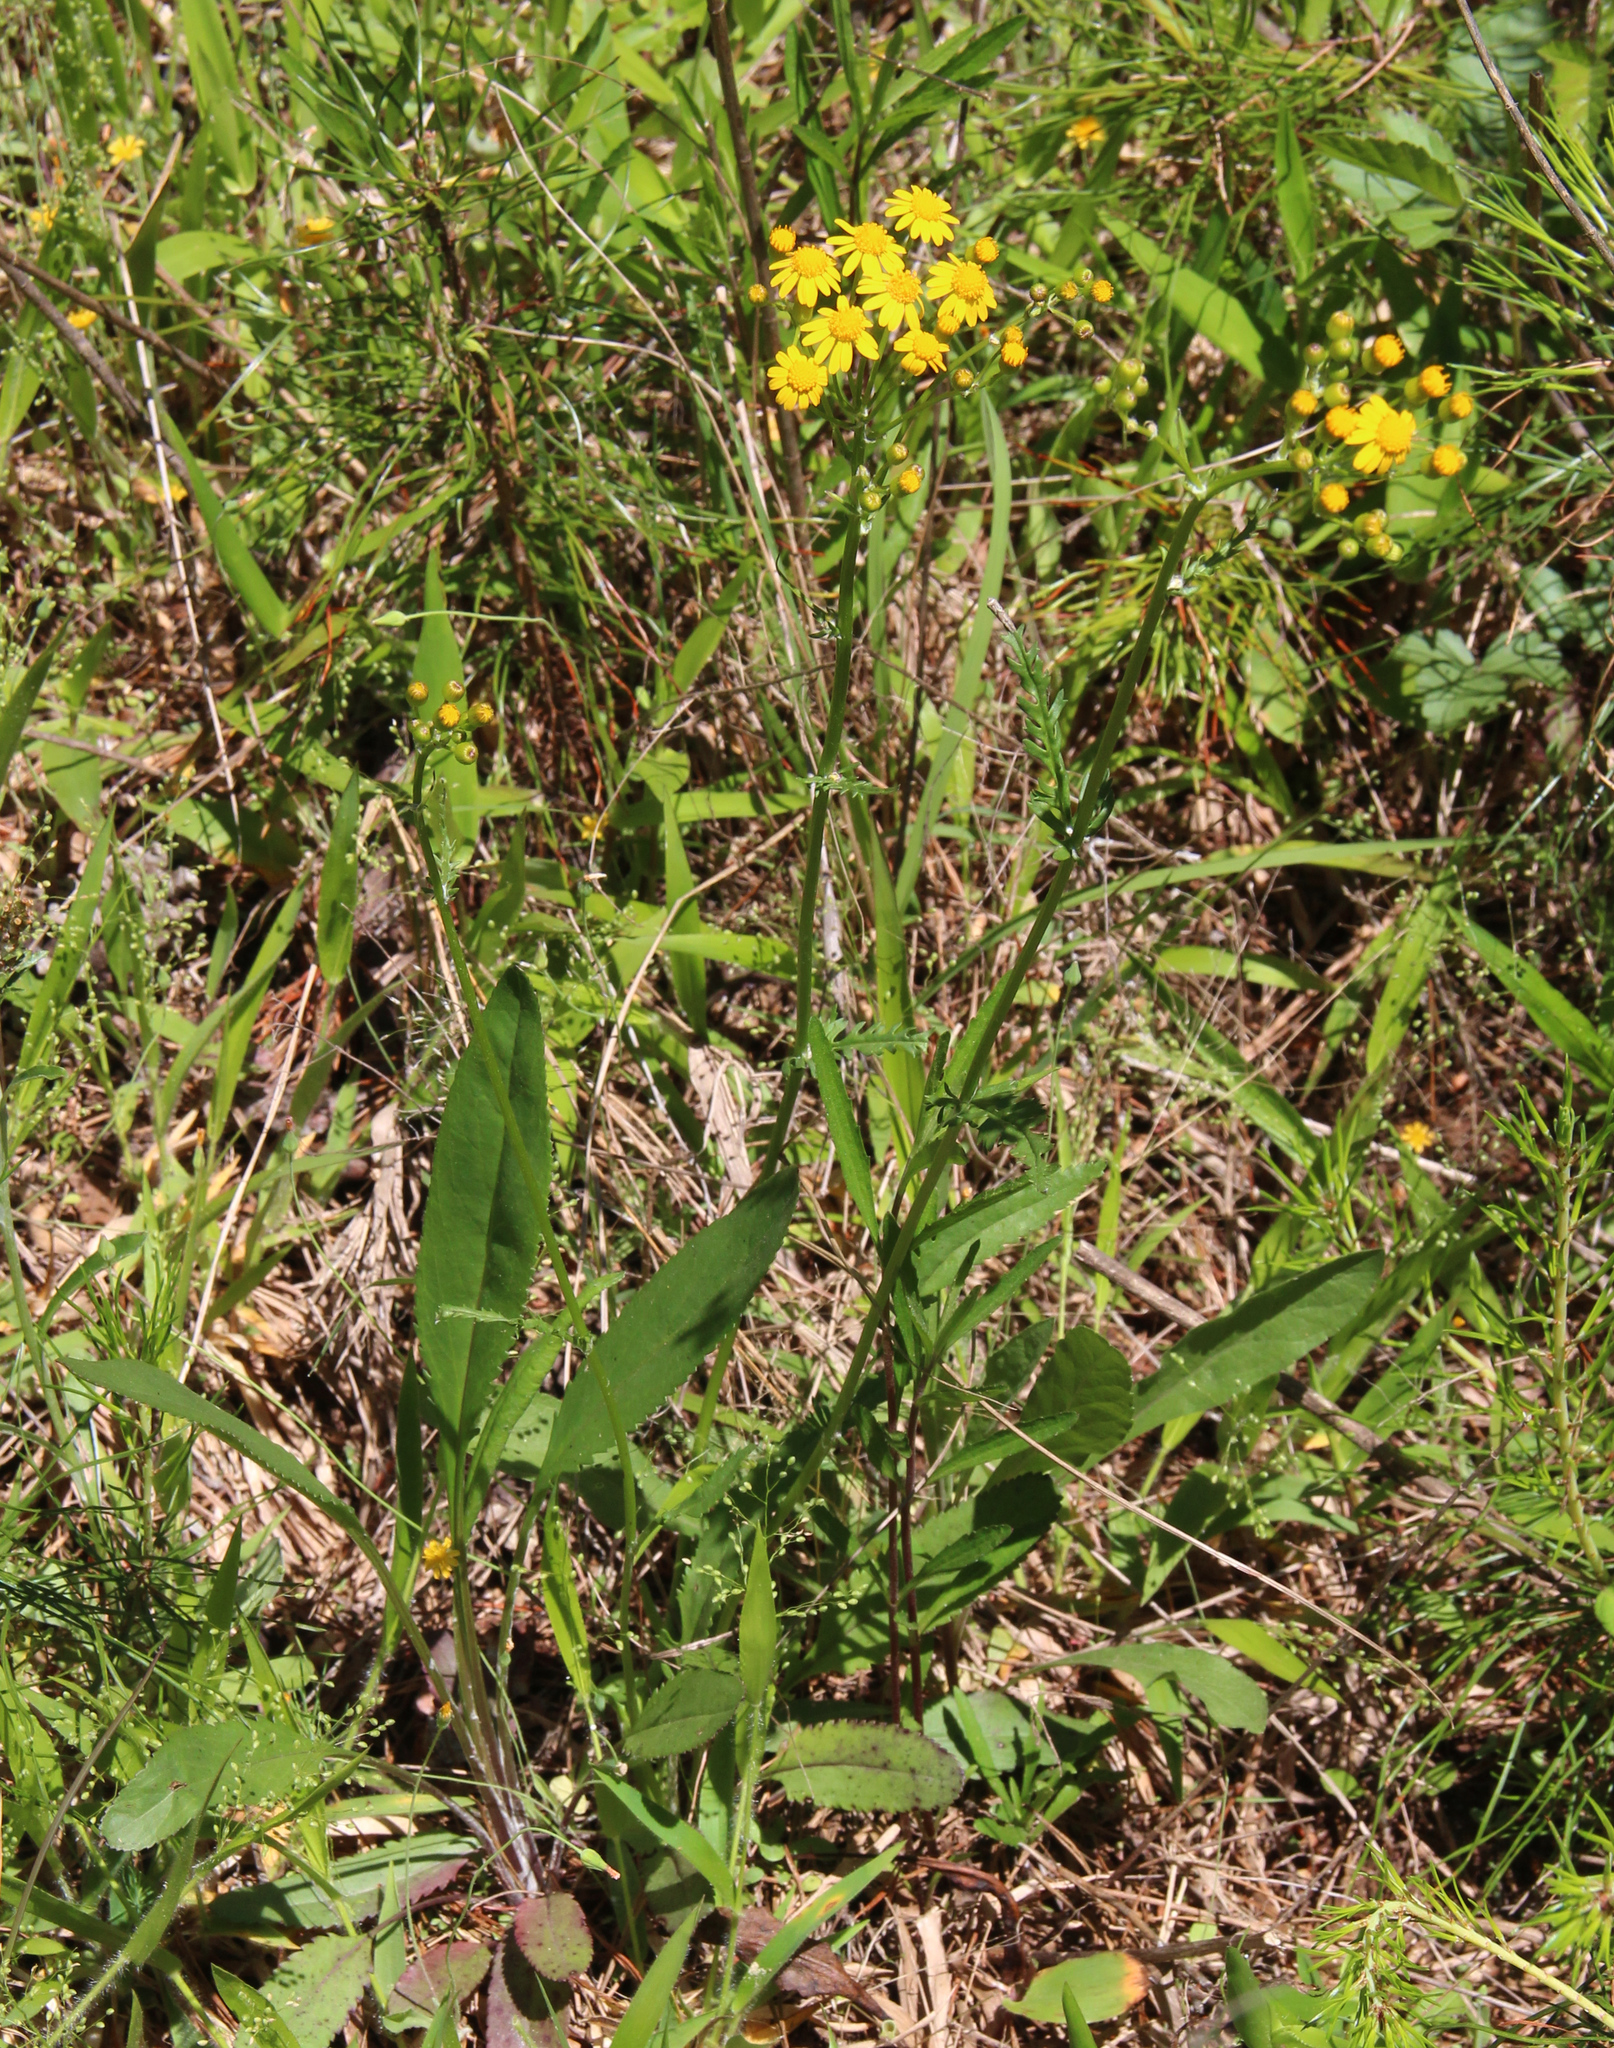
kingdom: Plantae
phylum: Tracheophyta
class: Magnoliopsida
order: Asterales
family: Asteraceae
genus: Packera
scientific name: Packera anonyma
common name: Small ragwort
